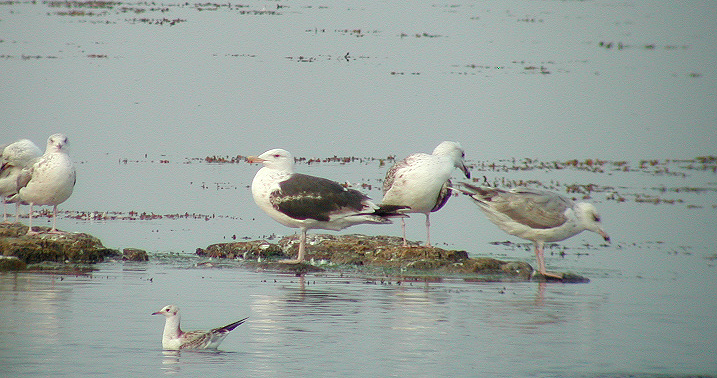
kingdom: Animalia
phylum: Chordata
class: Aves
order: Charadriiformes
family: Laridae
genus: Larus
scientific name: Larus marinus
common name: Great black-backed gull
